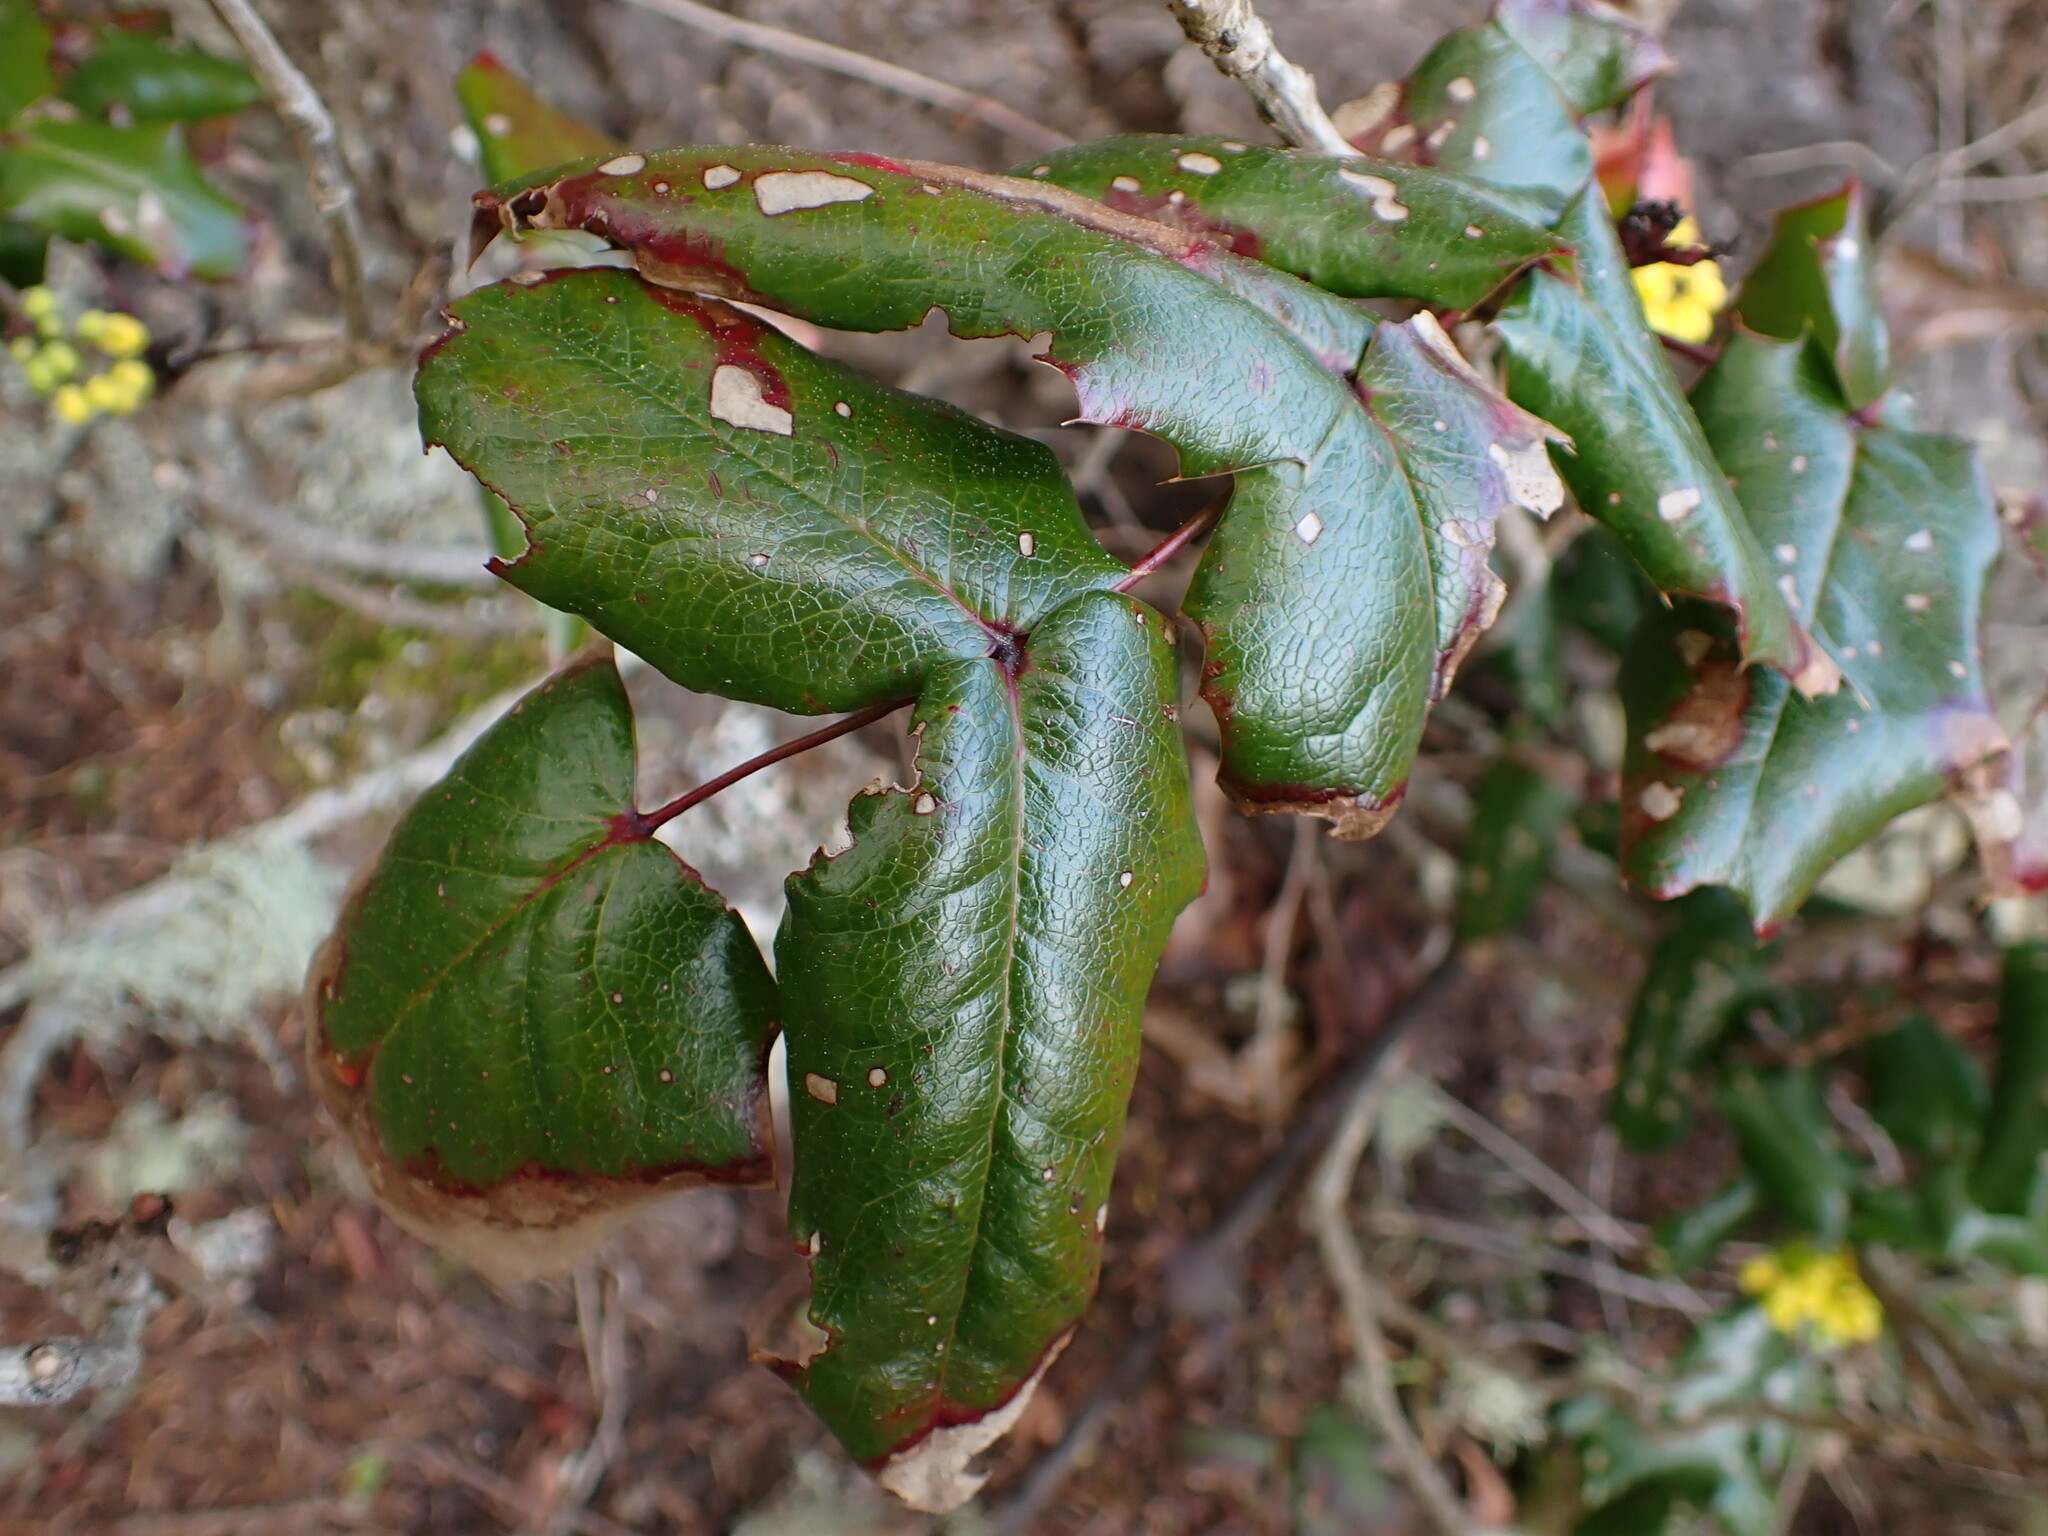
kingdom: Plantae
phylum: Tracheophyta
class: Magnoliopsida
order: Ranunculales
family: Berberidaceae
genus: Mahonia
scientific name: Mahonia aquifolium
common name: Oregon-grape
